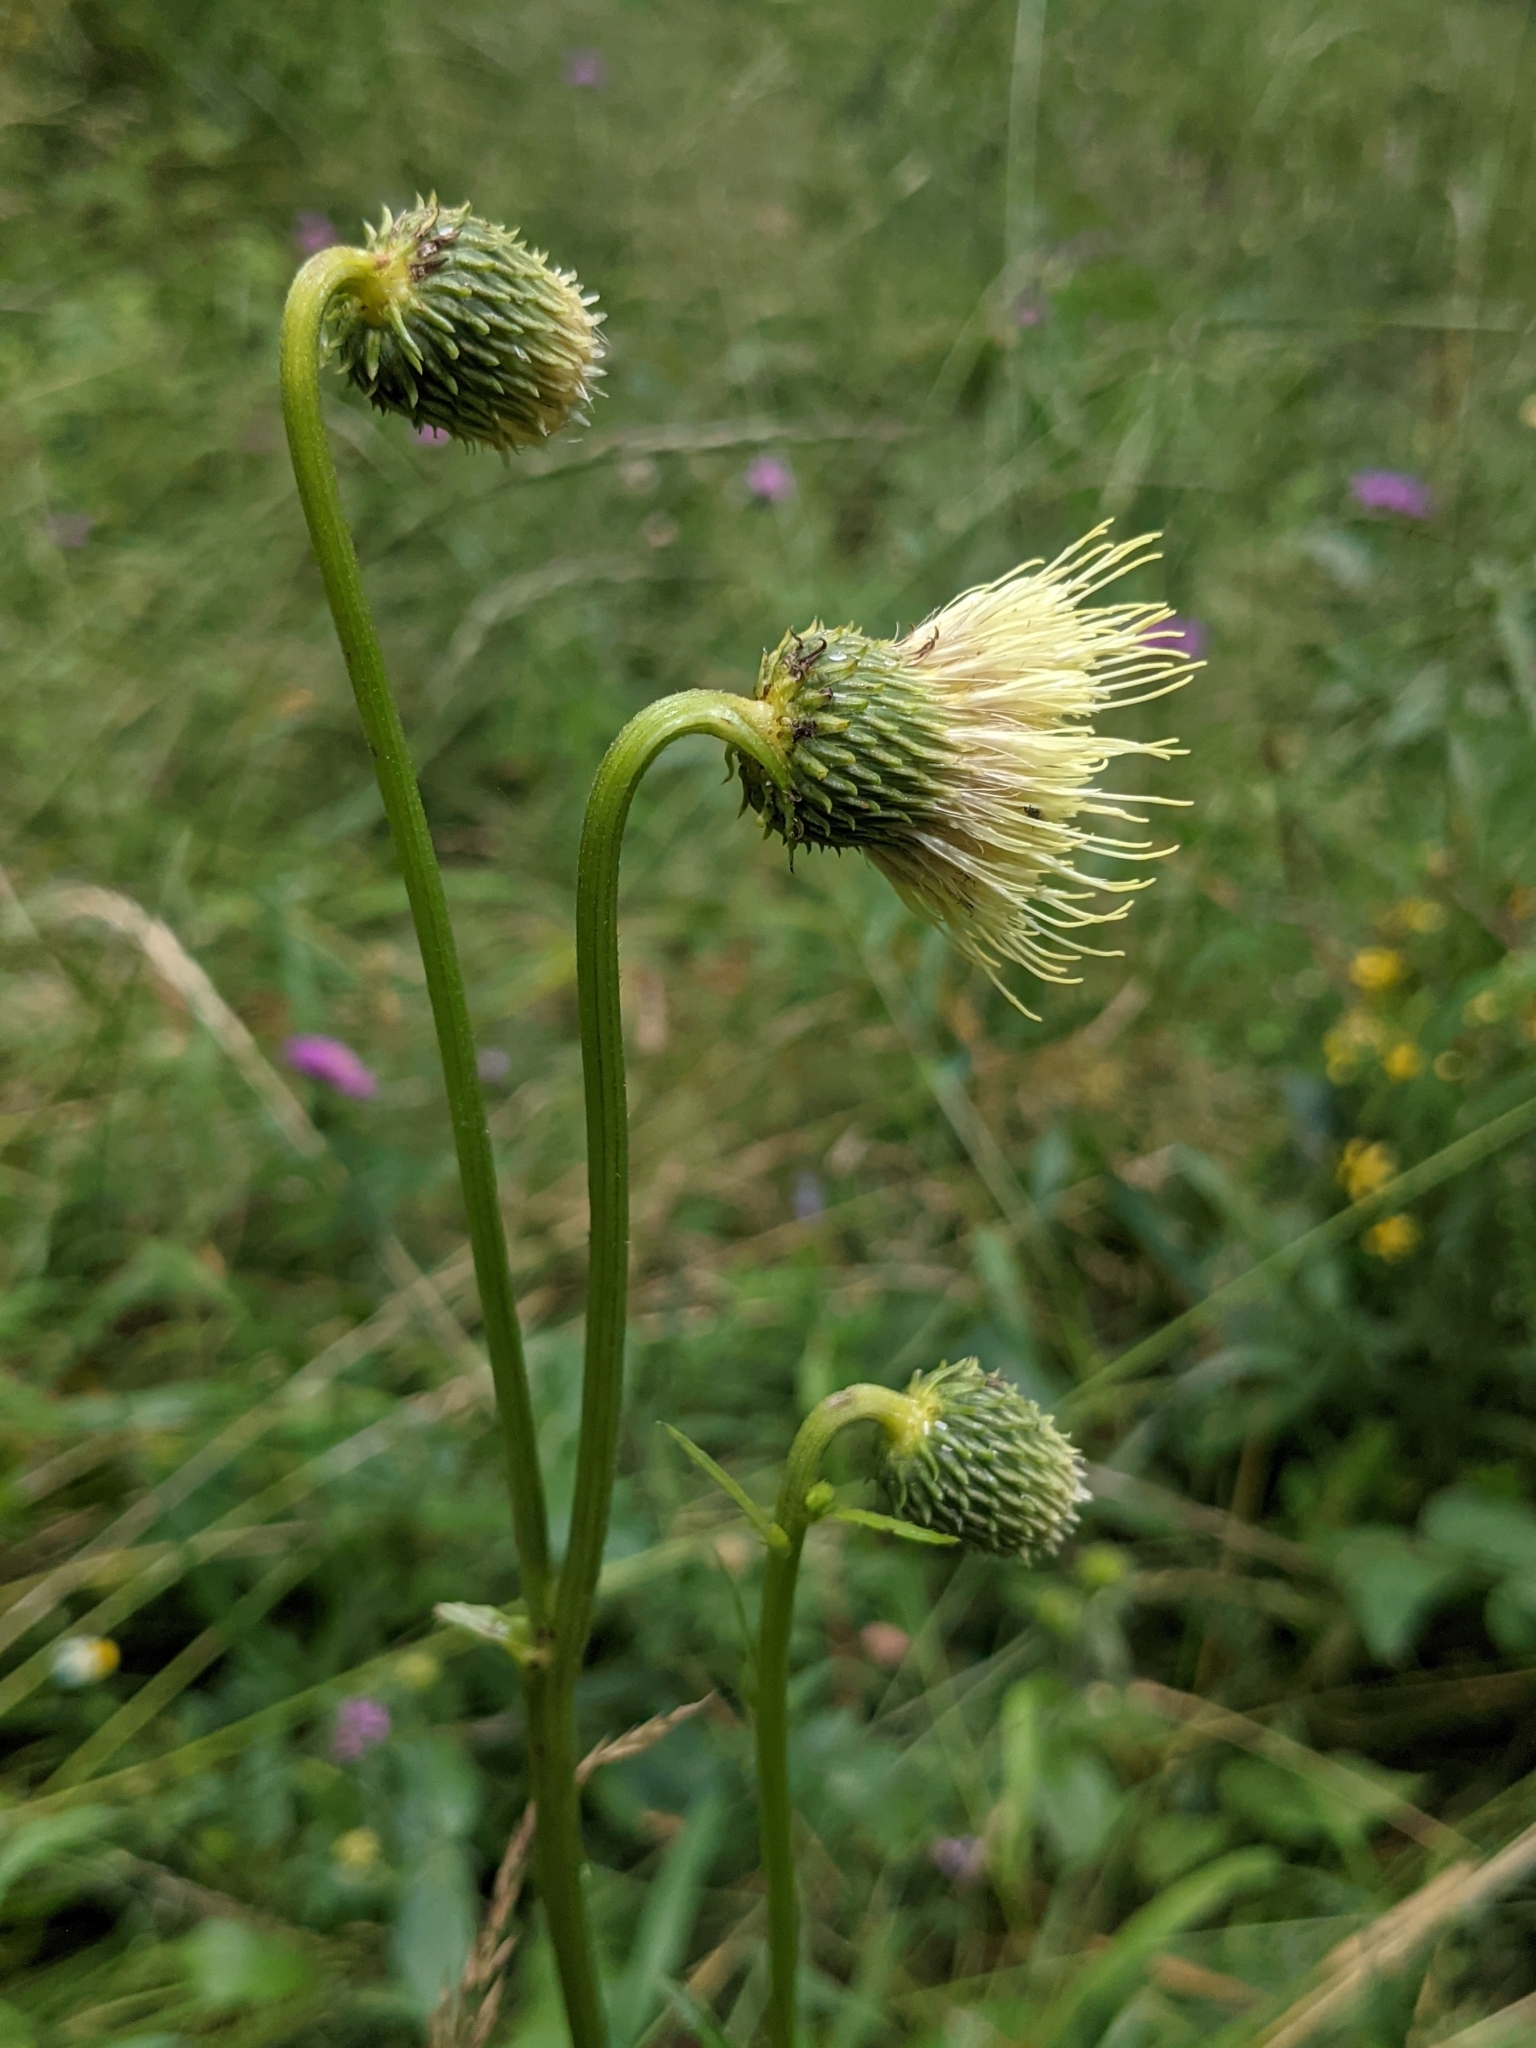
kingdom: Plantae
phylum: Tracheophyta
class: Magnoliopsida
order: Asterales
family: Asteraceae
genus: Cirsium
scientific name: Cirsium erisithales
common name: Yellow thistle
